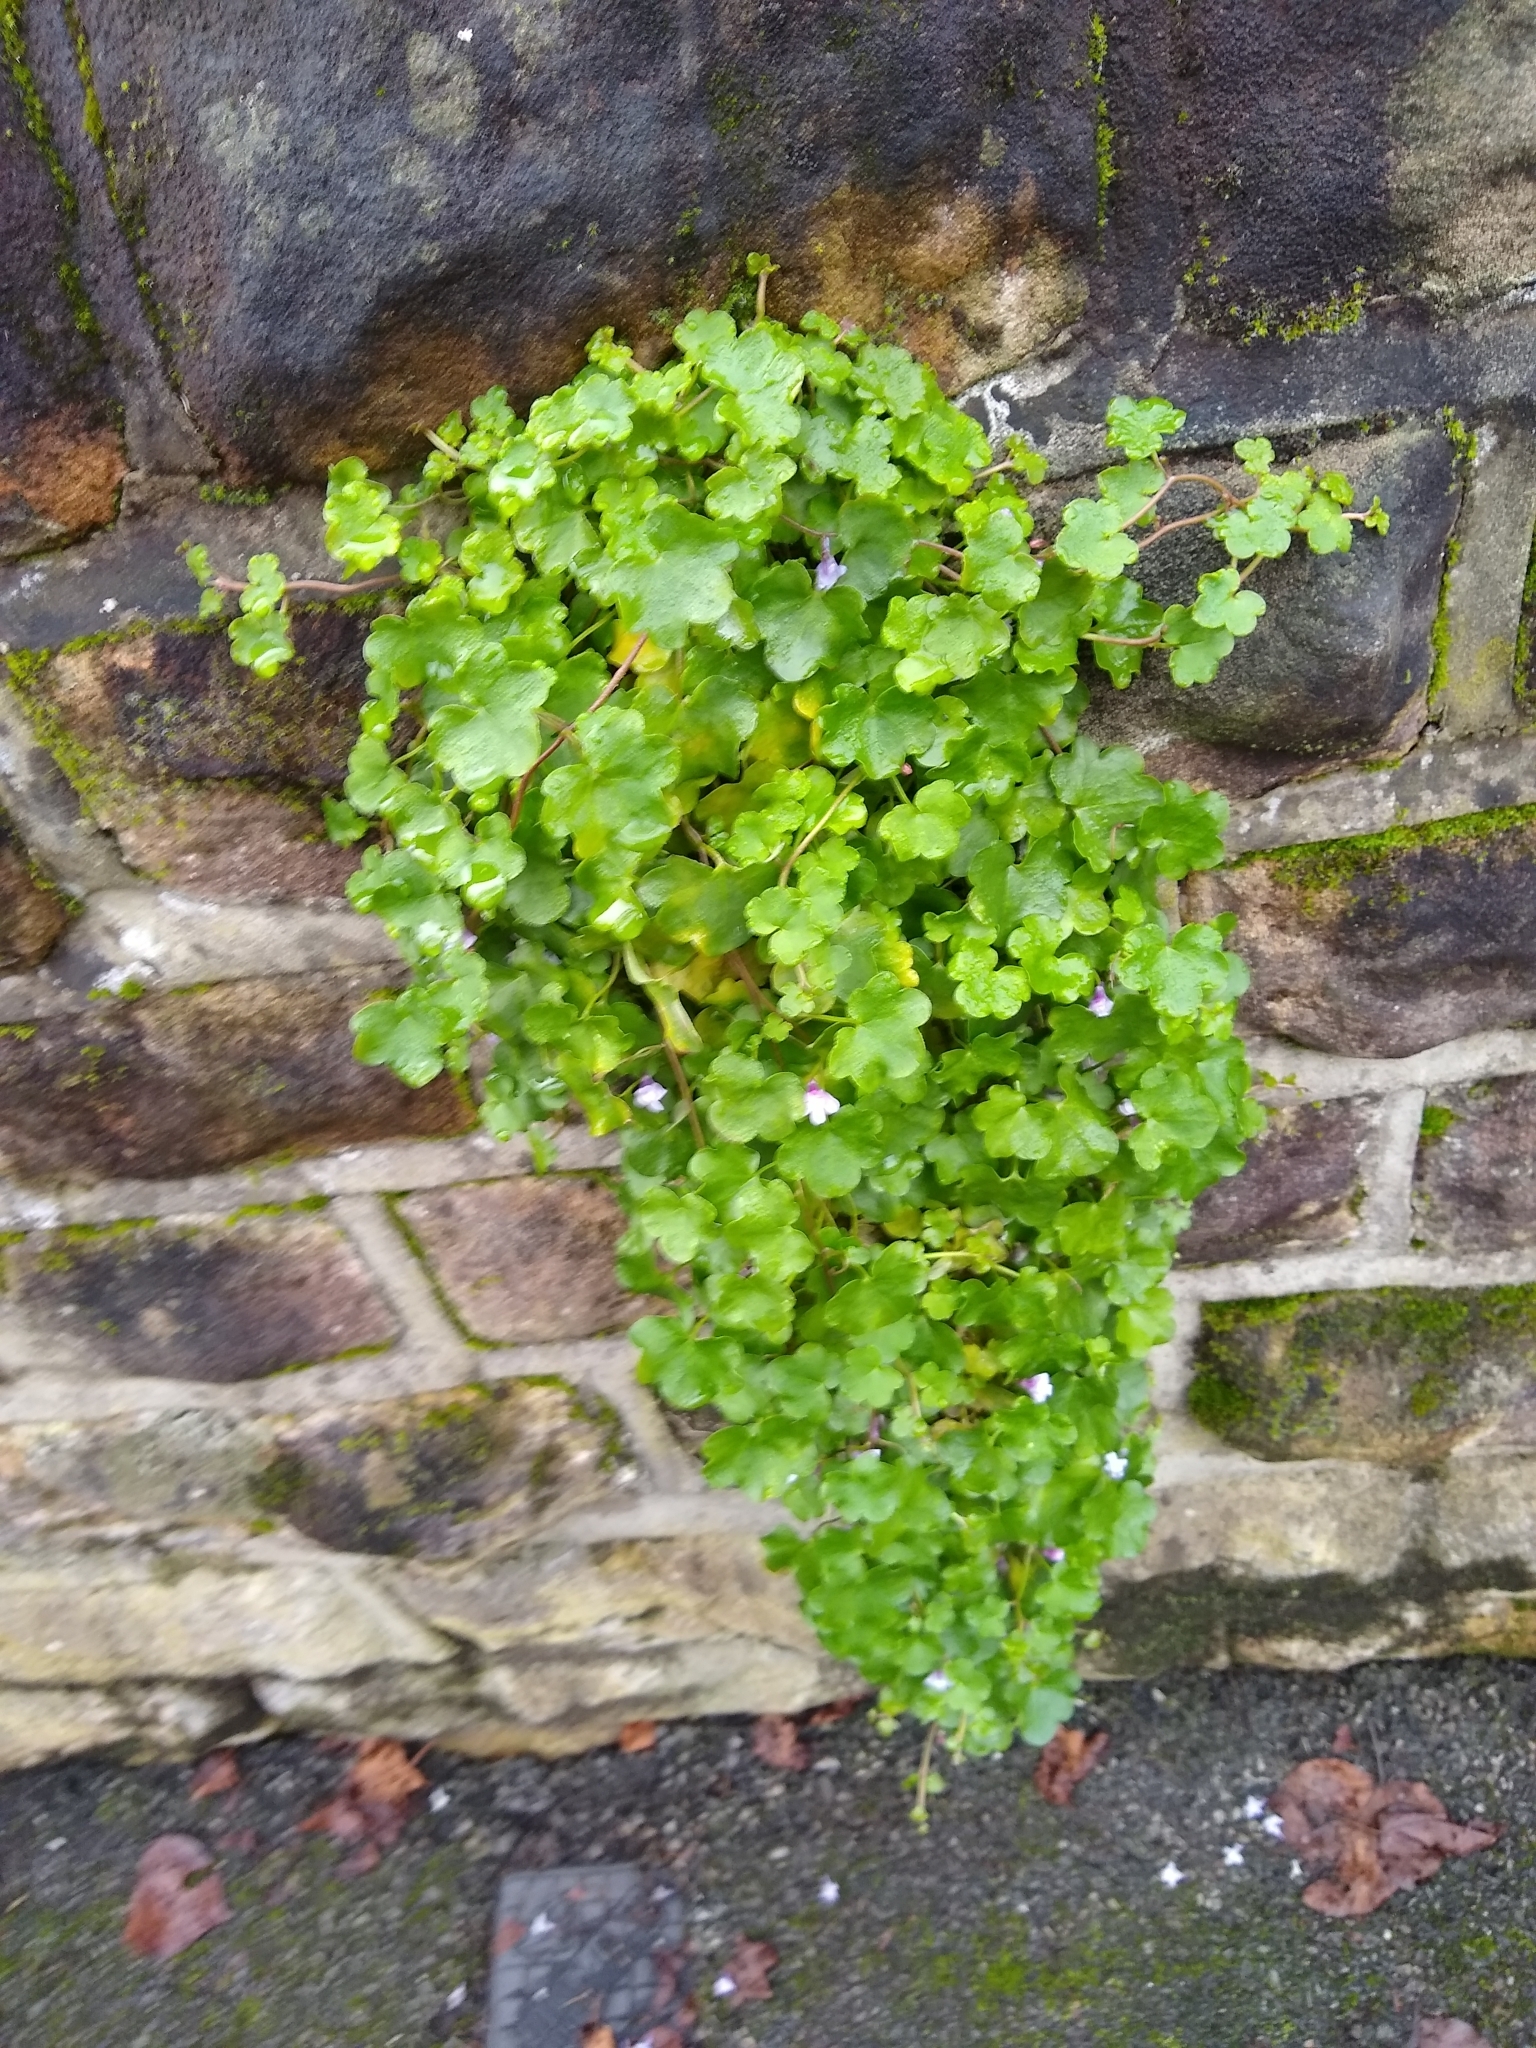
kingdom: Plantae
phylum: Tracheophyta
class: Magnoliopsida
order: Lamiales
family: Plantaginaceae
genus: Cymbalaria
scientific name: Cymbalaria muralis
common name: Ivy-leaved toadflax
